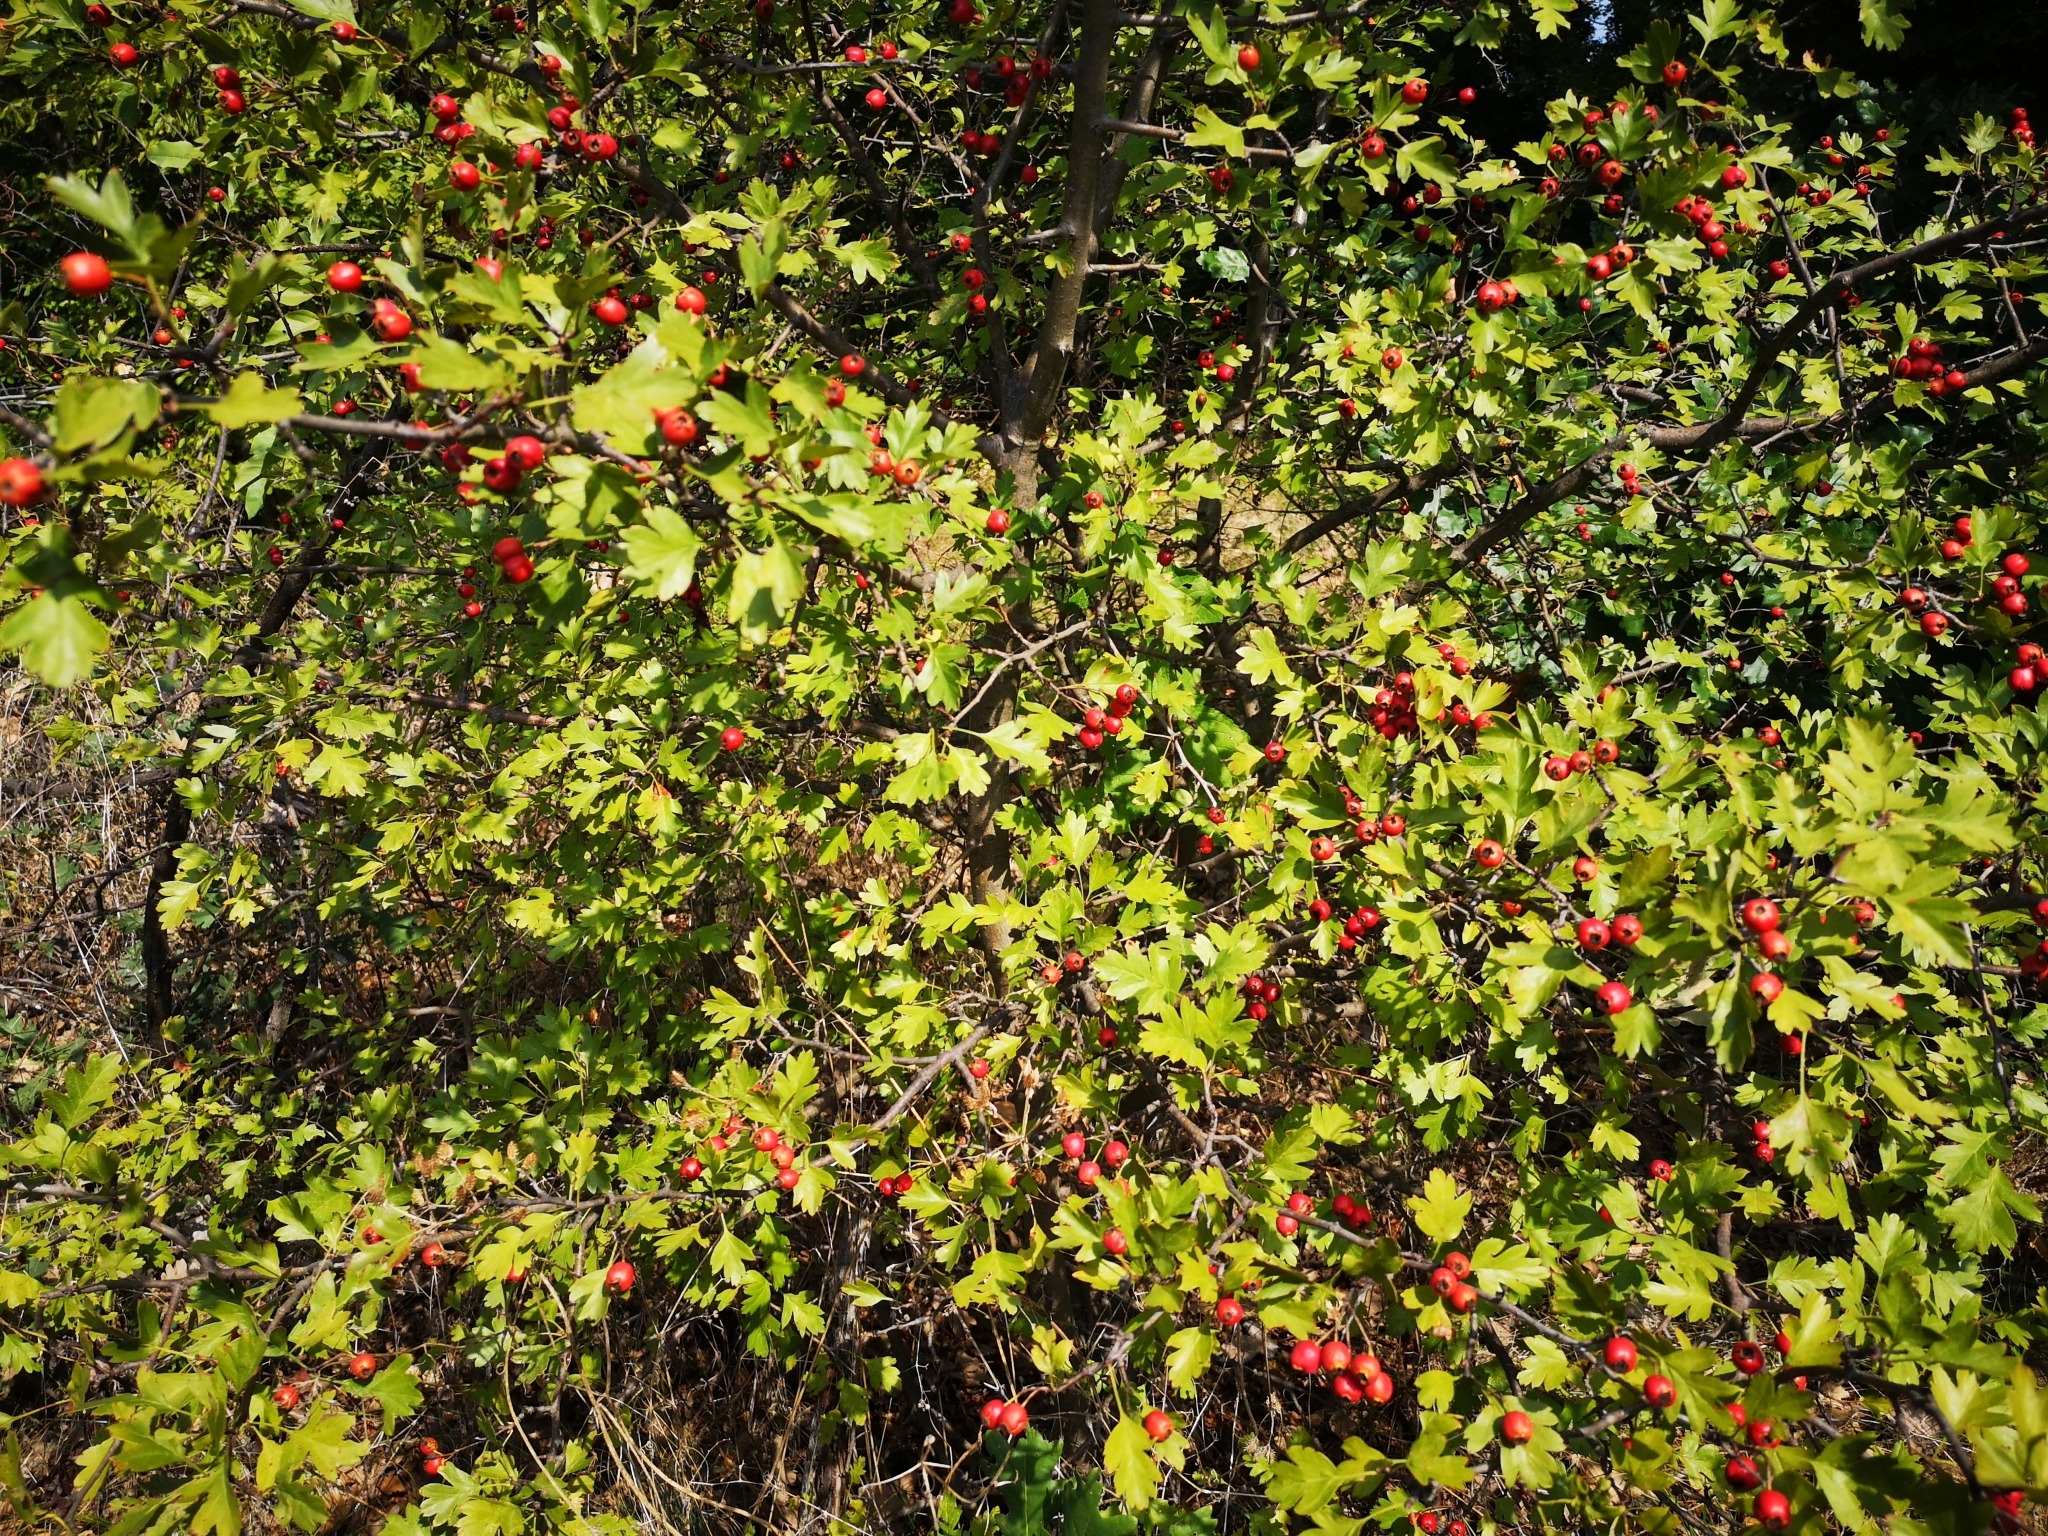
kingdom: Plantae
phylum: Tracheophyta
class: Magnoliopsida
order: Rosales
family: Rosaceae
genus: Crataegus
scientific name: Crataegus monogyna
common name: Hawthorn
